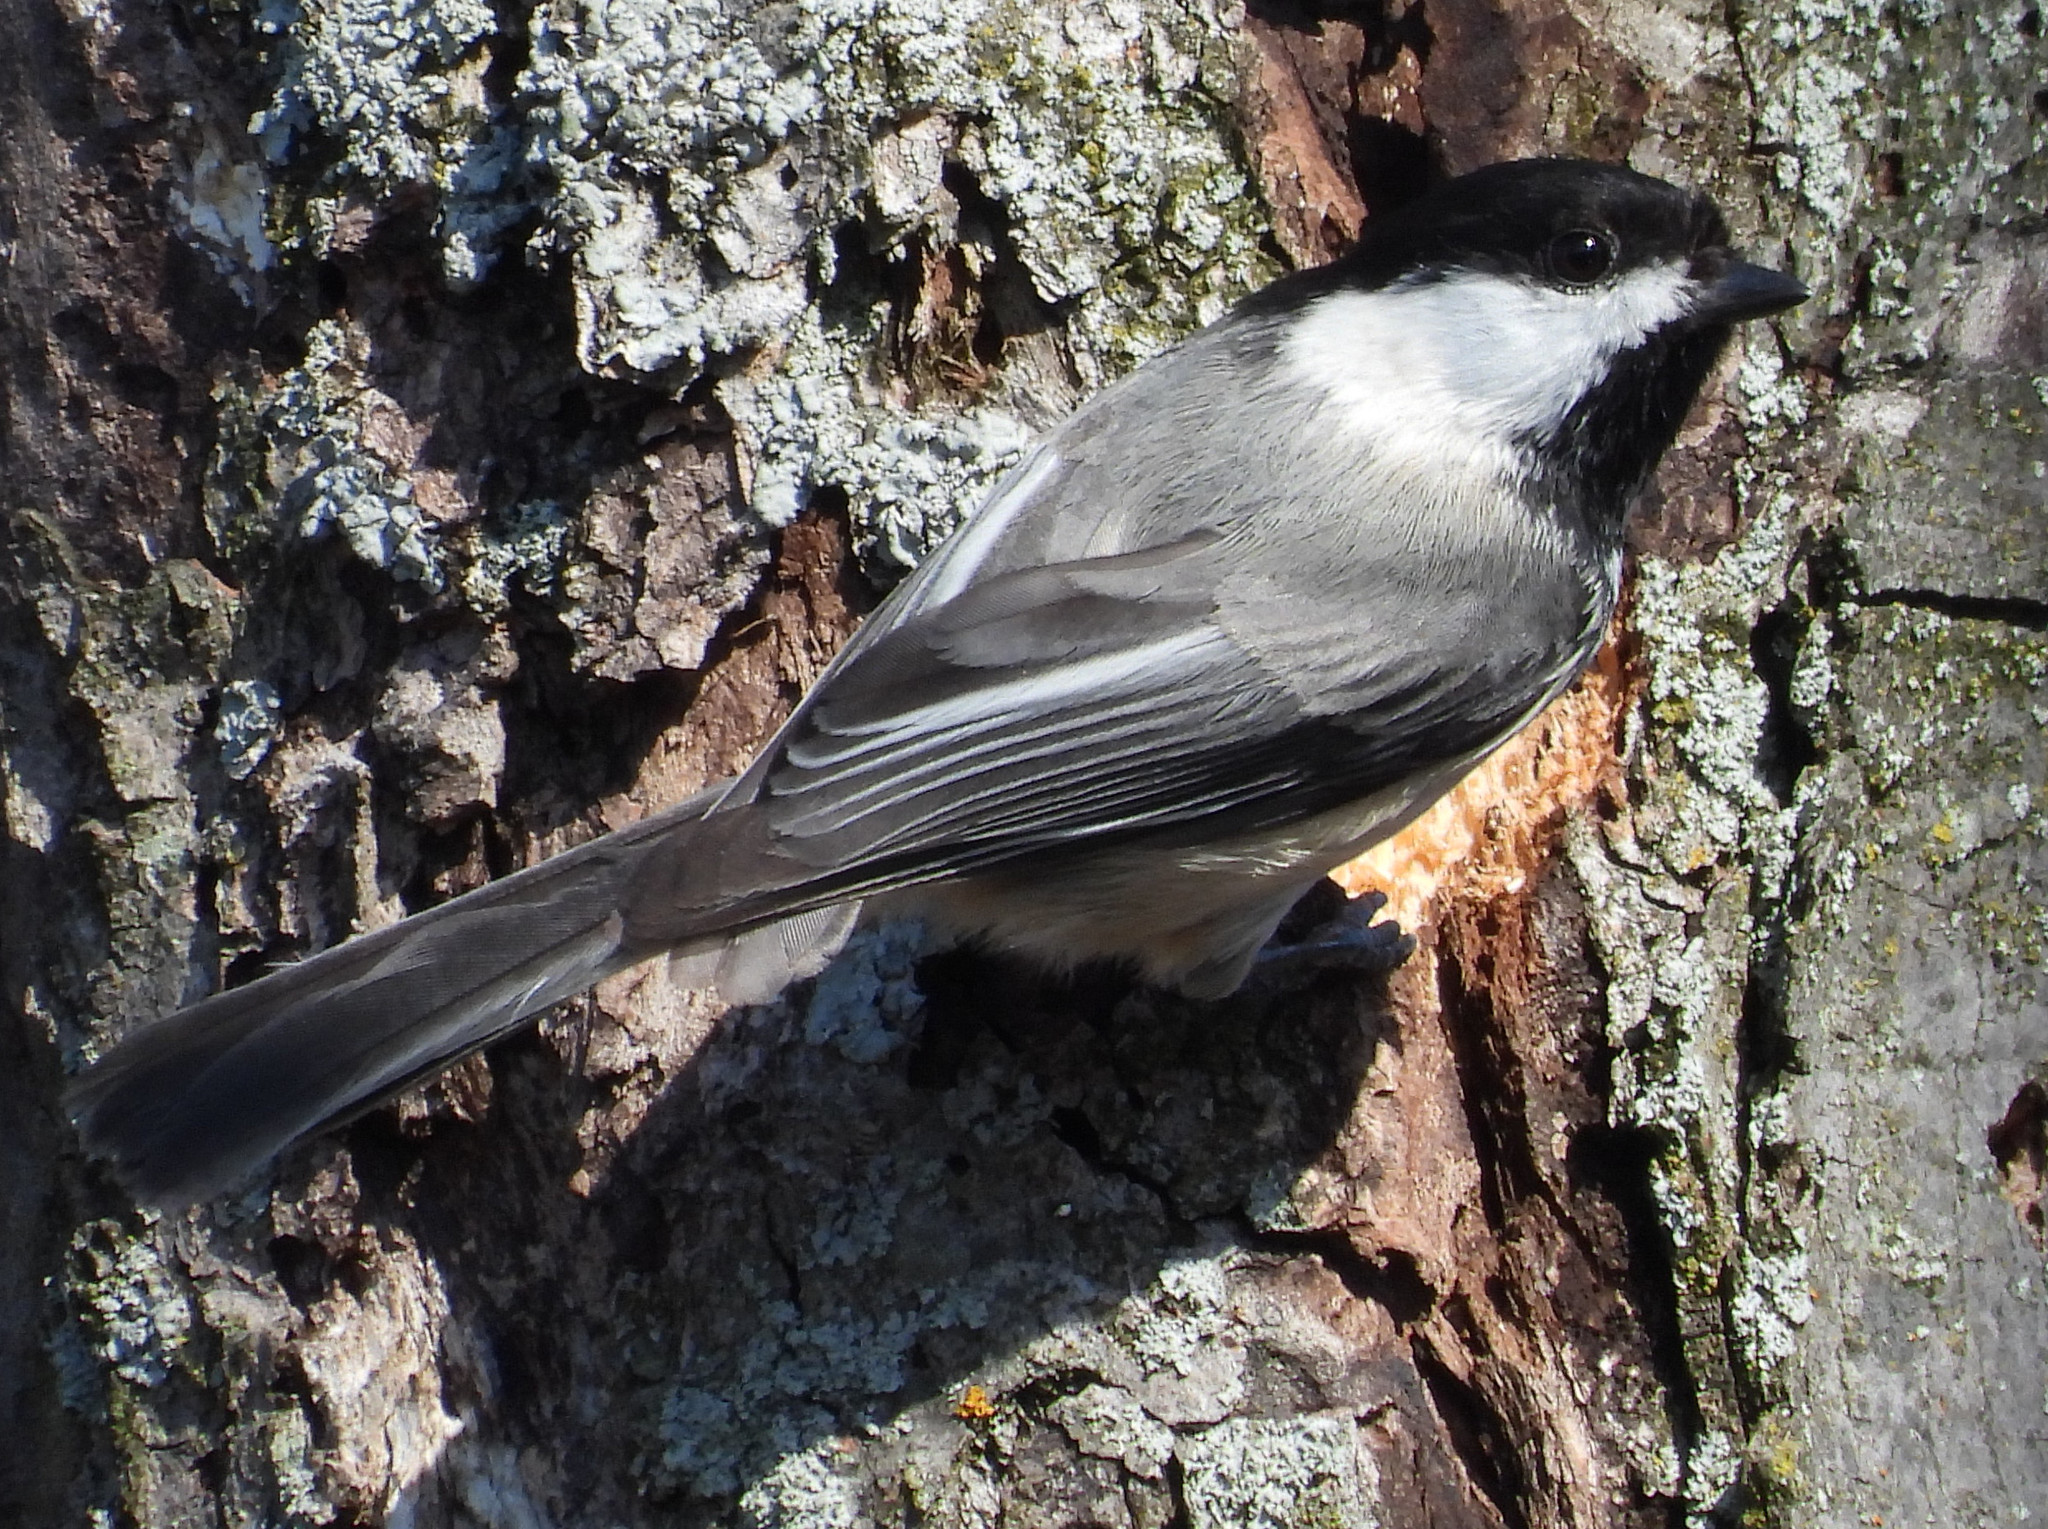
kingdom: Animalia
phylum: Chordata
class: Aves
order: Passeriformes
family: Paridae
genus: Poecile
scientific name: Poecile atricapillus
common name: Black-capped chickadee
